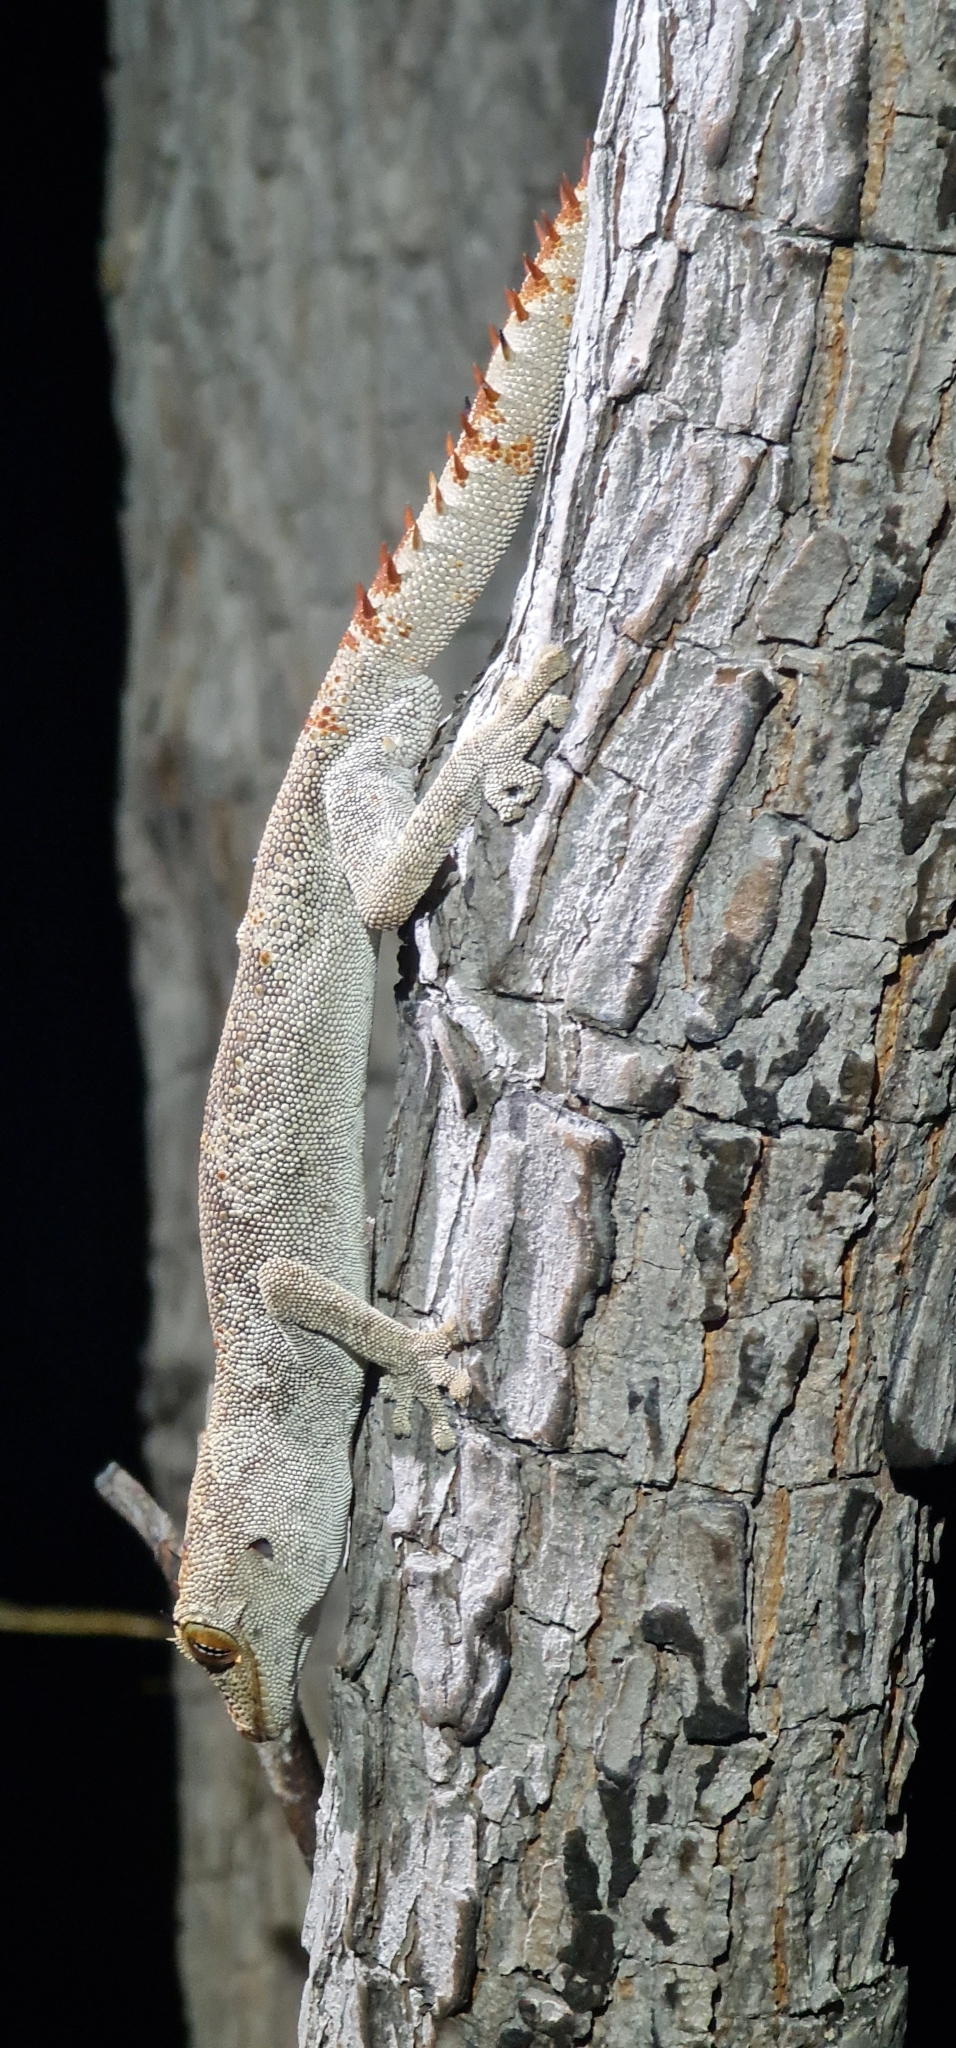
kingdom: Animalia
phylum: Chordata
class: Squamata
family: Diplodactylidae
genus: Strophurus
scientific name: Strophurus ciliaris
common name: Northern spiny-tailed gecko
